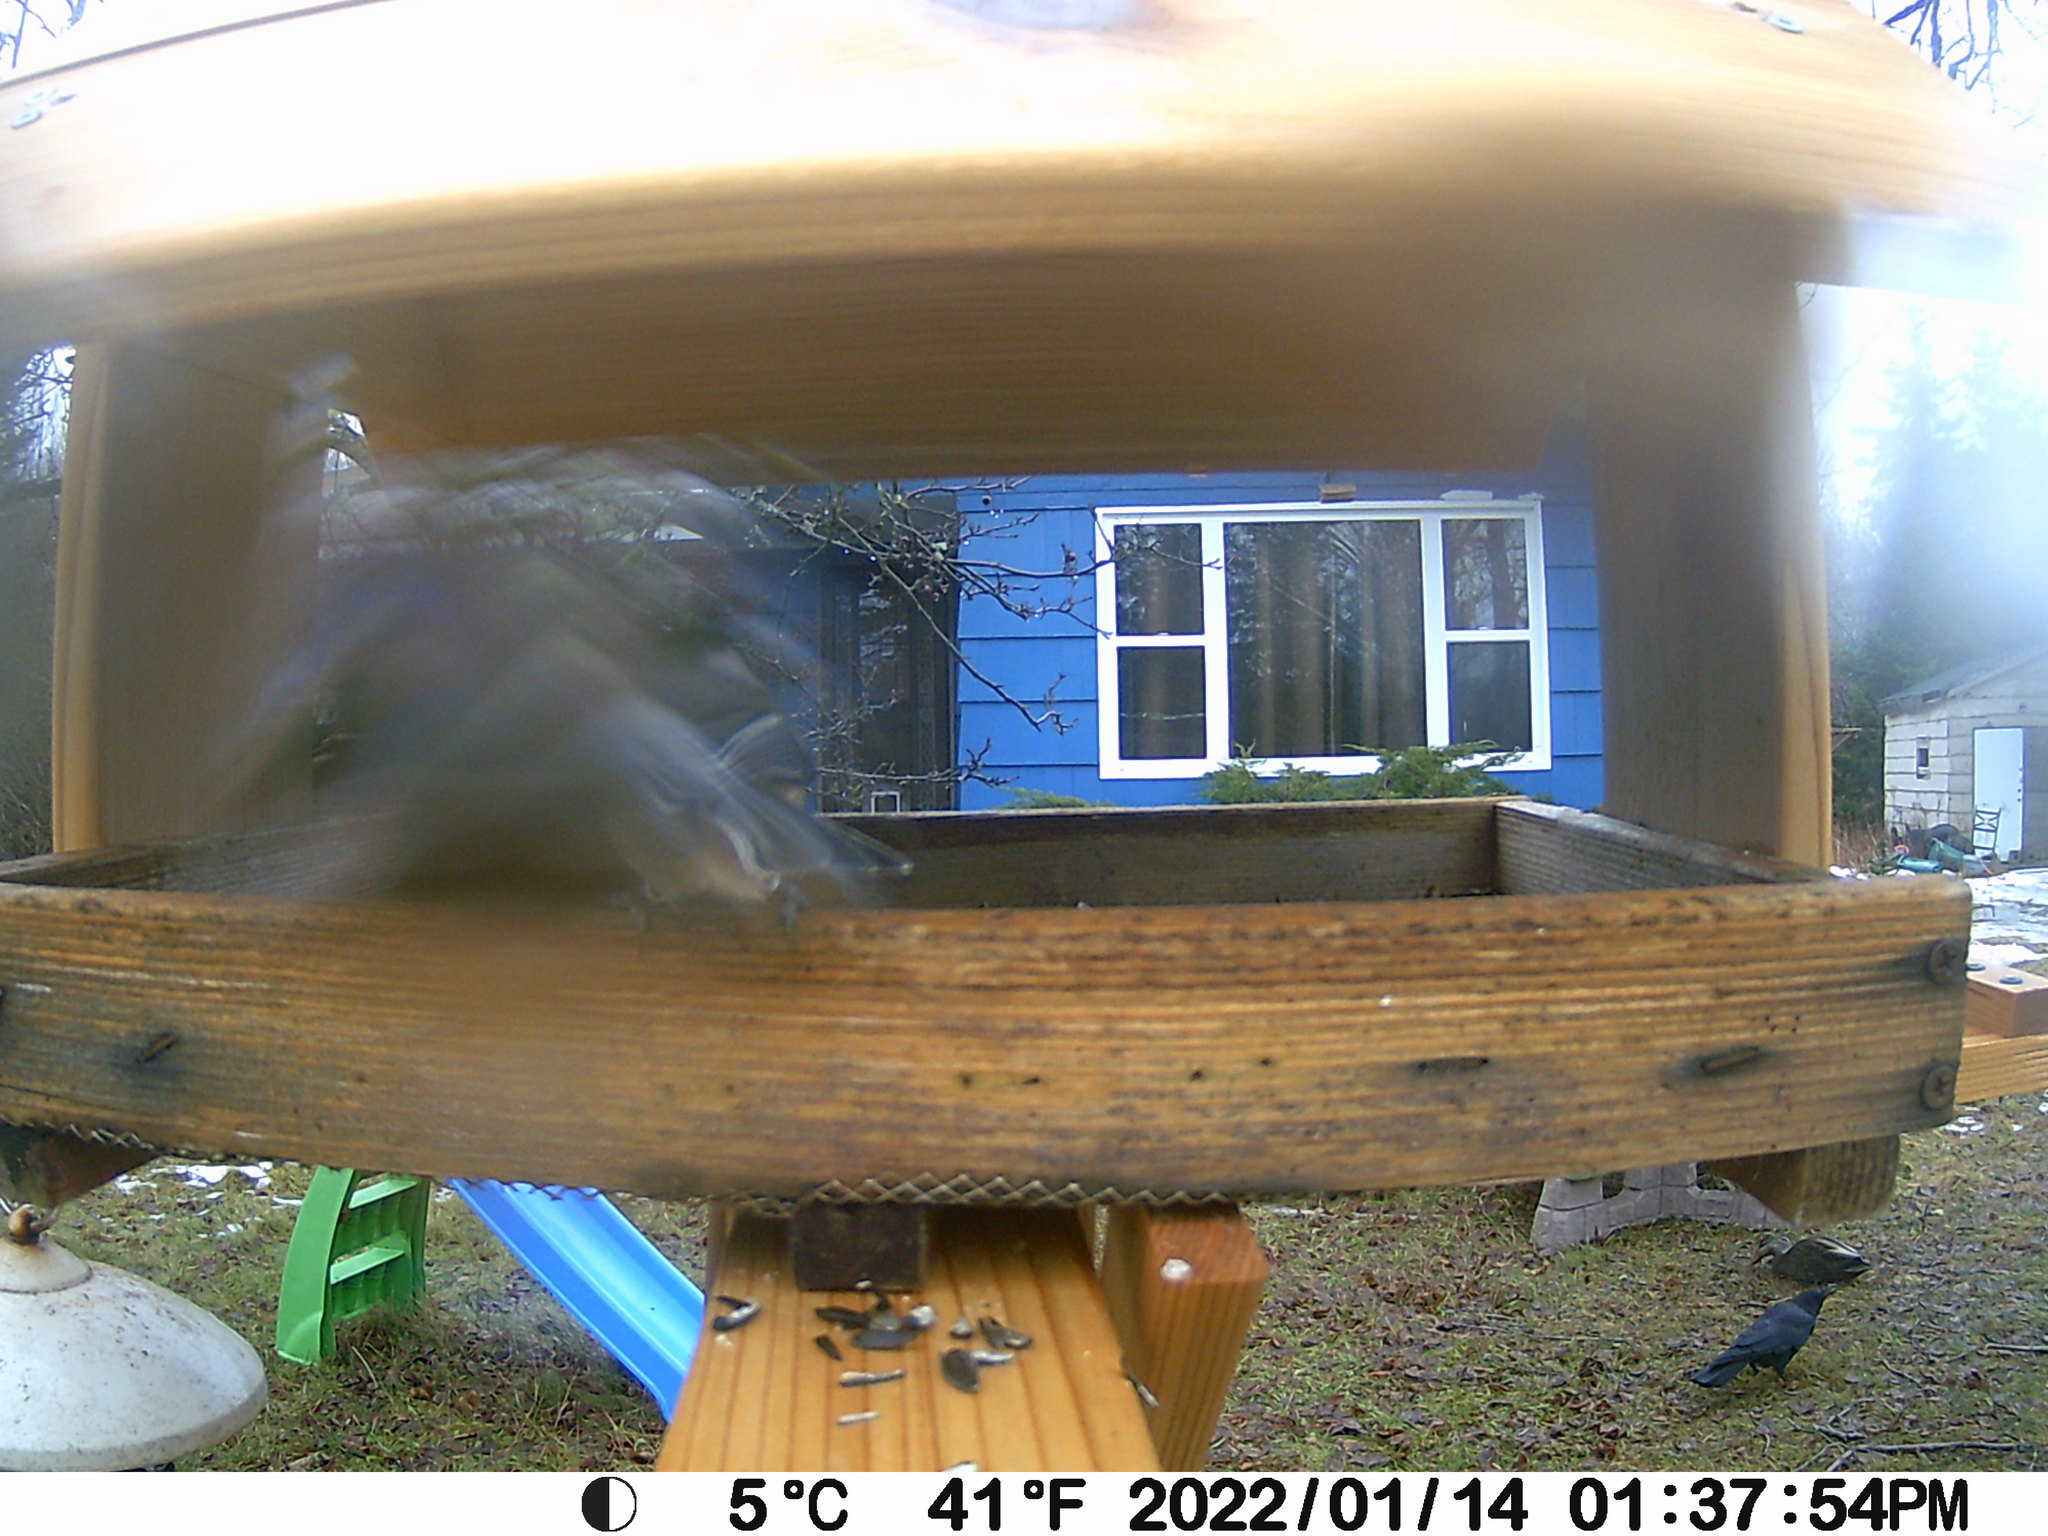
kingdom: Animalia
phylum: Chordata
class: Aves
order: Passeriformes
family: Corvidae
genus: Corvus
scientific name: Corvus brachyrhynchos
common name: American crow
